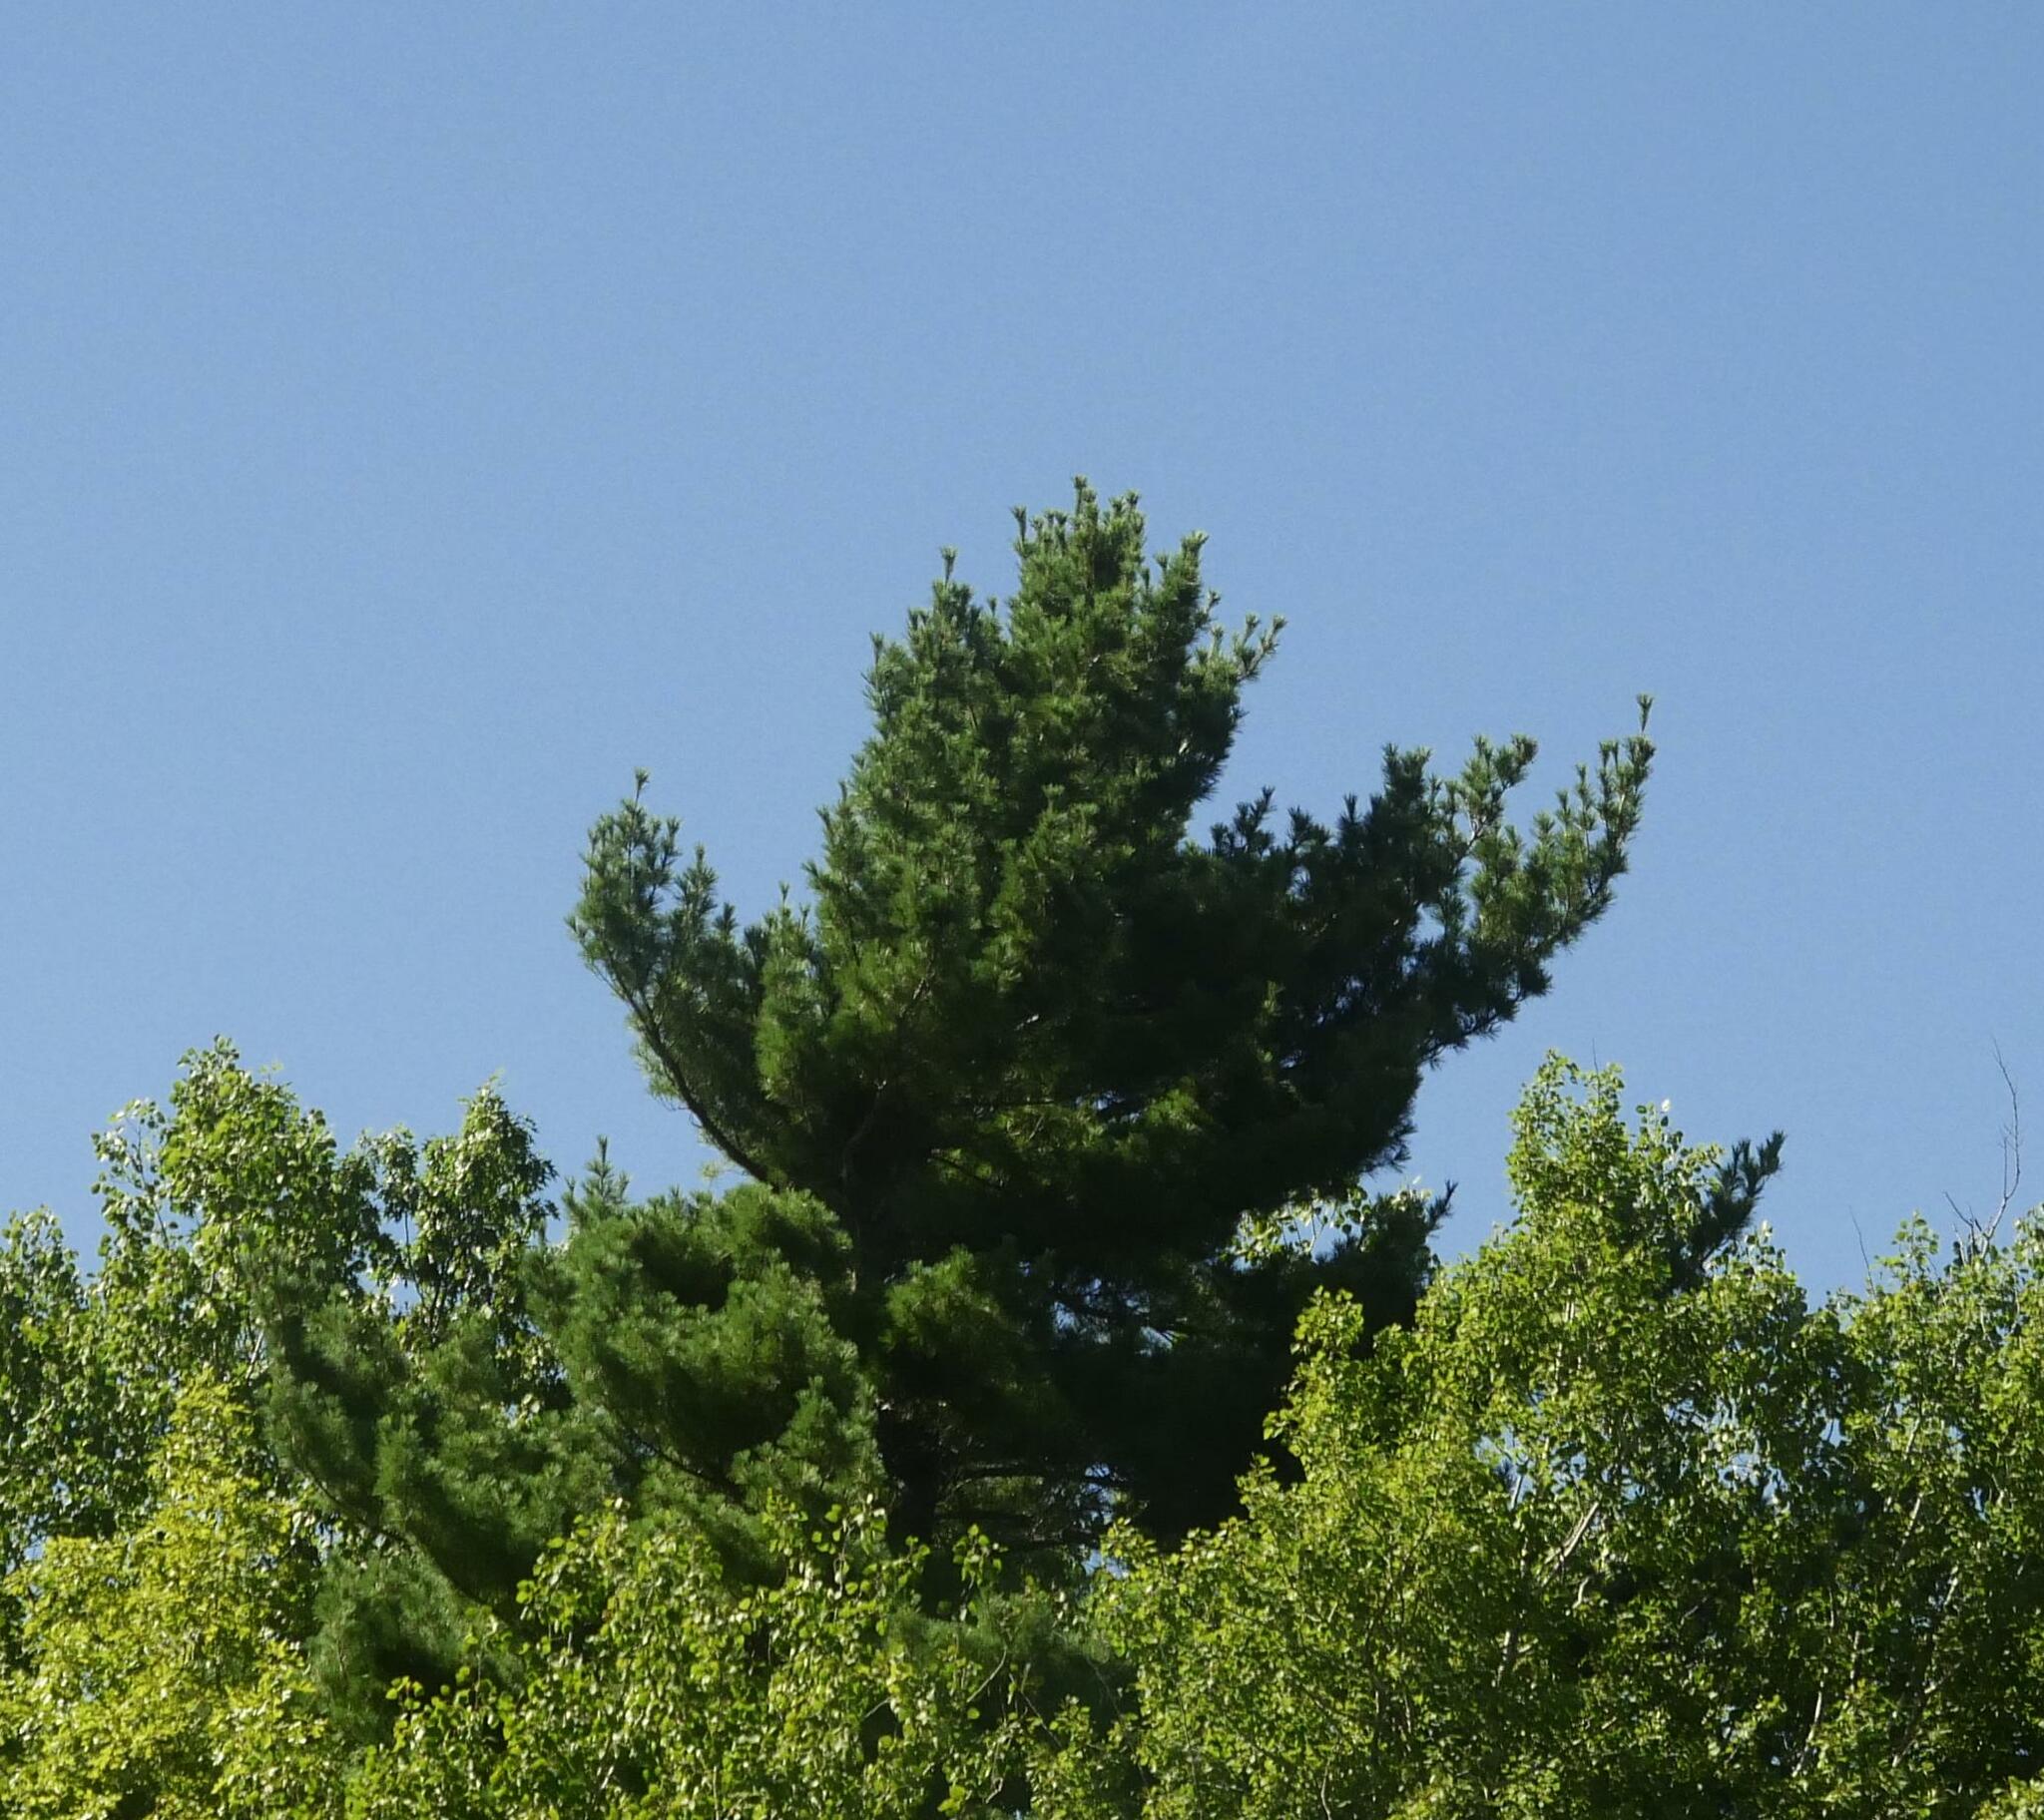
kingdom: Plantae
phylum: Tracheophyta
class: Pinopsida
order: Pinales
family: Pinaceae
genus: Pinus
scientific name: Pinus strobus
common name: Weymouth pine
